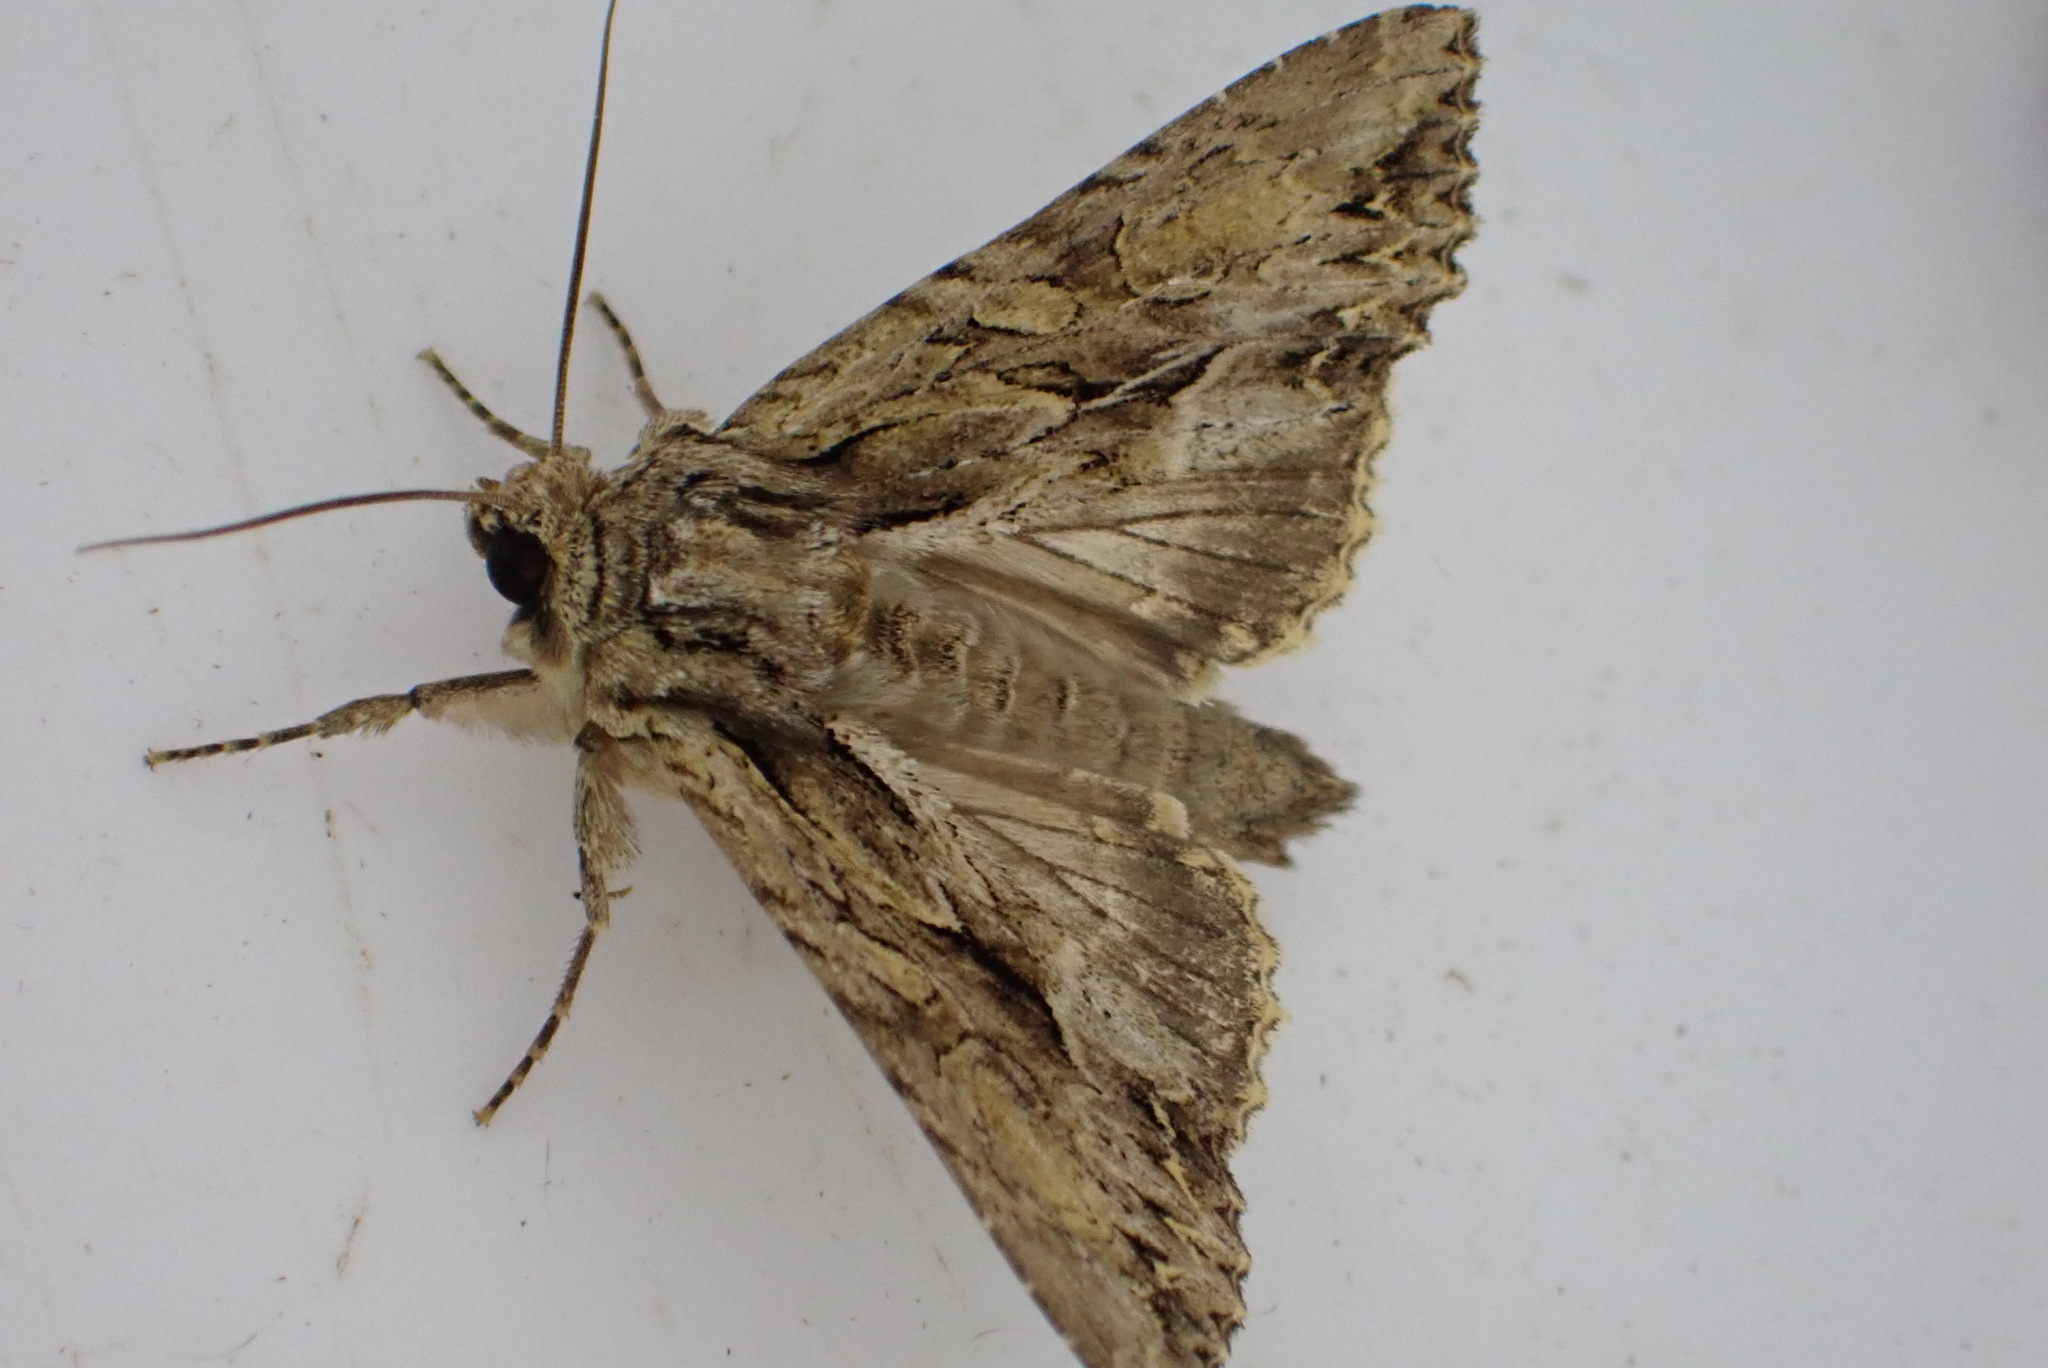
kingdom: Animalia
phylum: Arthropoda
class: Insecta
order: Lepidoptera
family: Noctuidae
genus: Apamea
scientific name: Apamea monoglypha
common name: Dark arches
